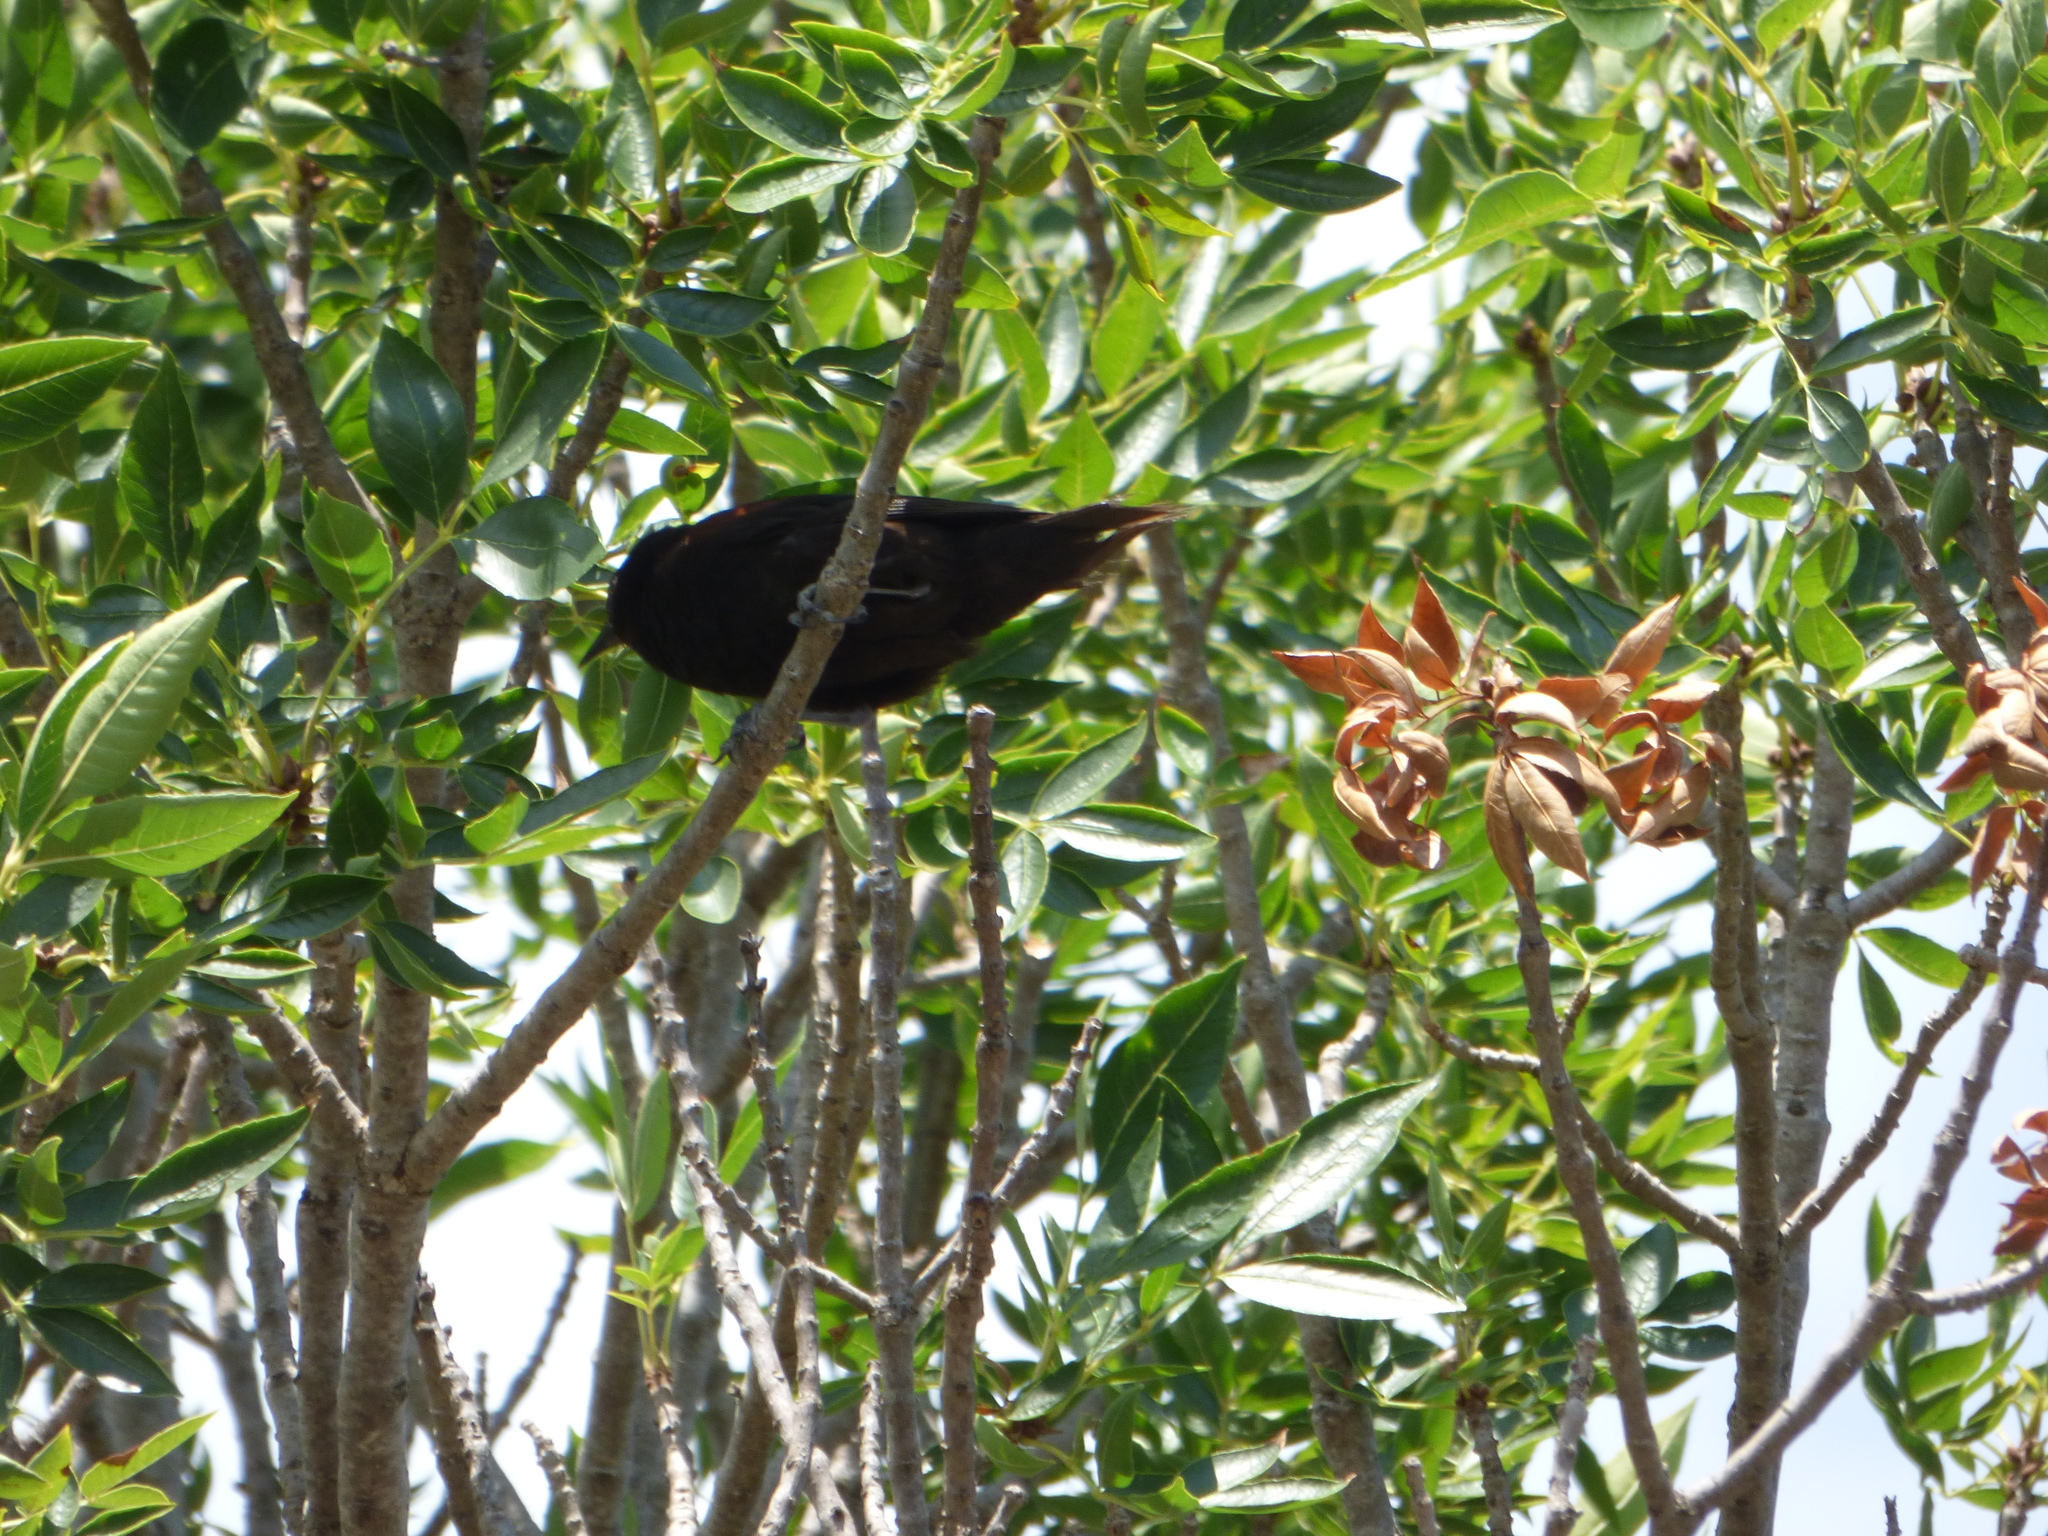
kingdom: Animalia
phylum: Chordata
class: Aves
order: Passeriformes
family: Icteridae
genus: Icterus
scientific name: Icterus cayanensis
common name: Epaulet oriole
